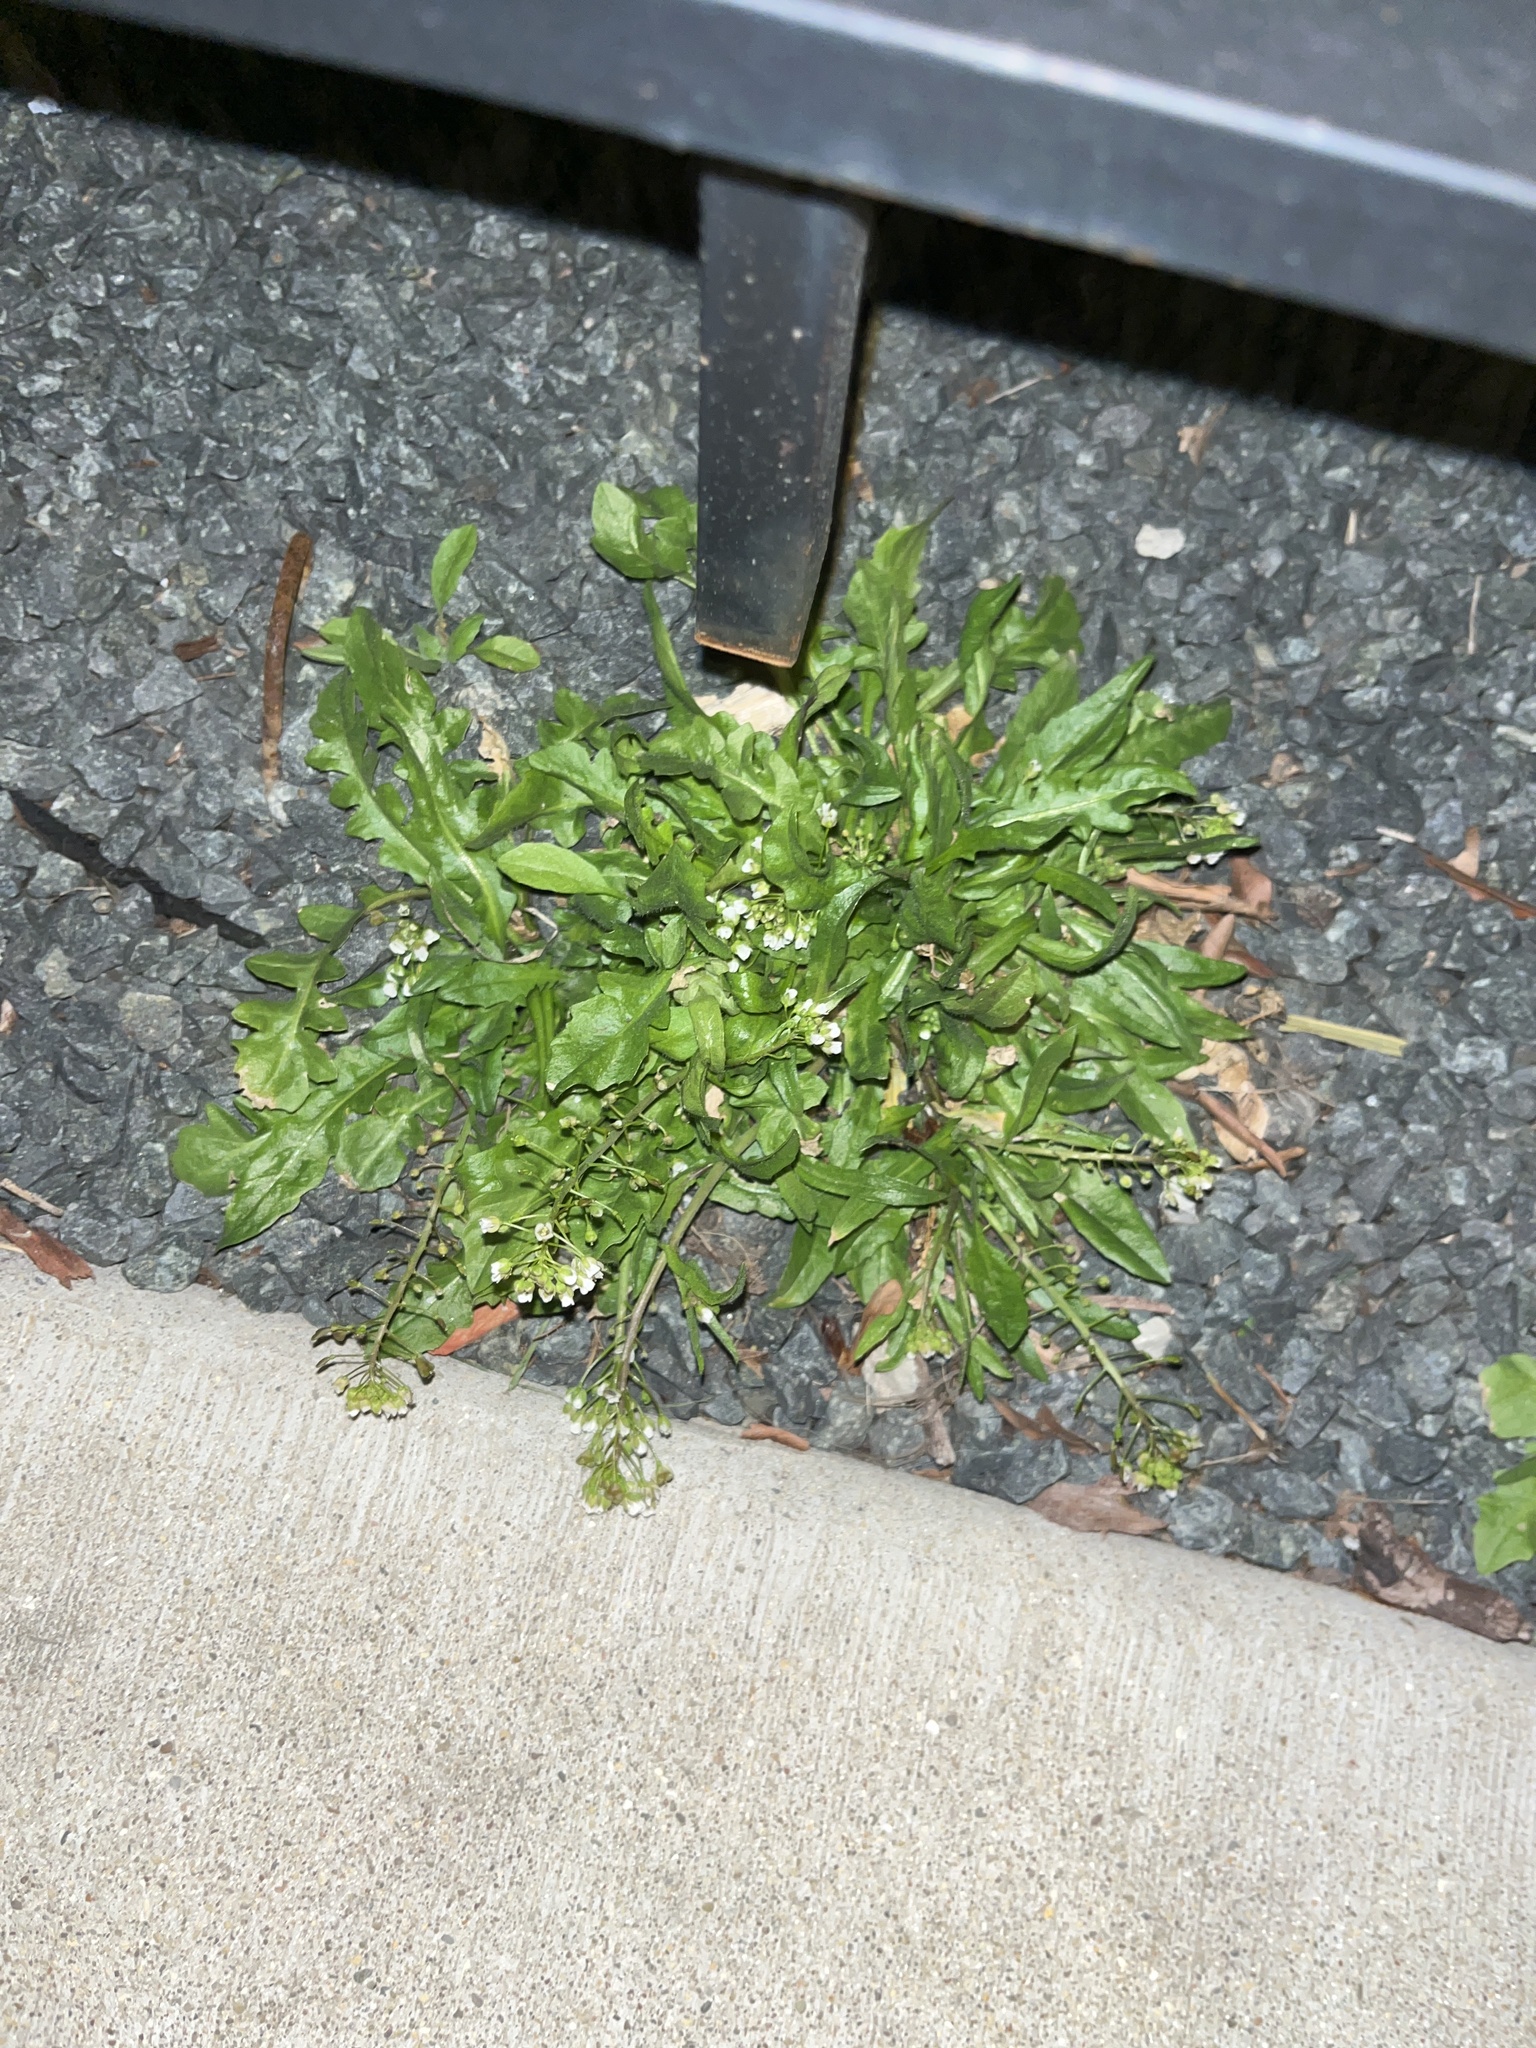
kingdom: Plantae
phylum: Tracheophyta
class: Magnoliopsida
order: Brassicales
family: Brassicaceae
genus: Capsella
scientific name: Capsella bursa-pastoris
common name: Shepherd's purse
